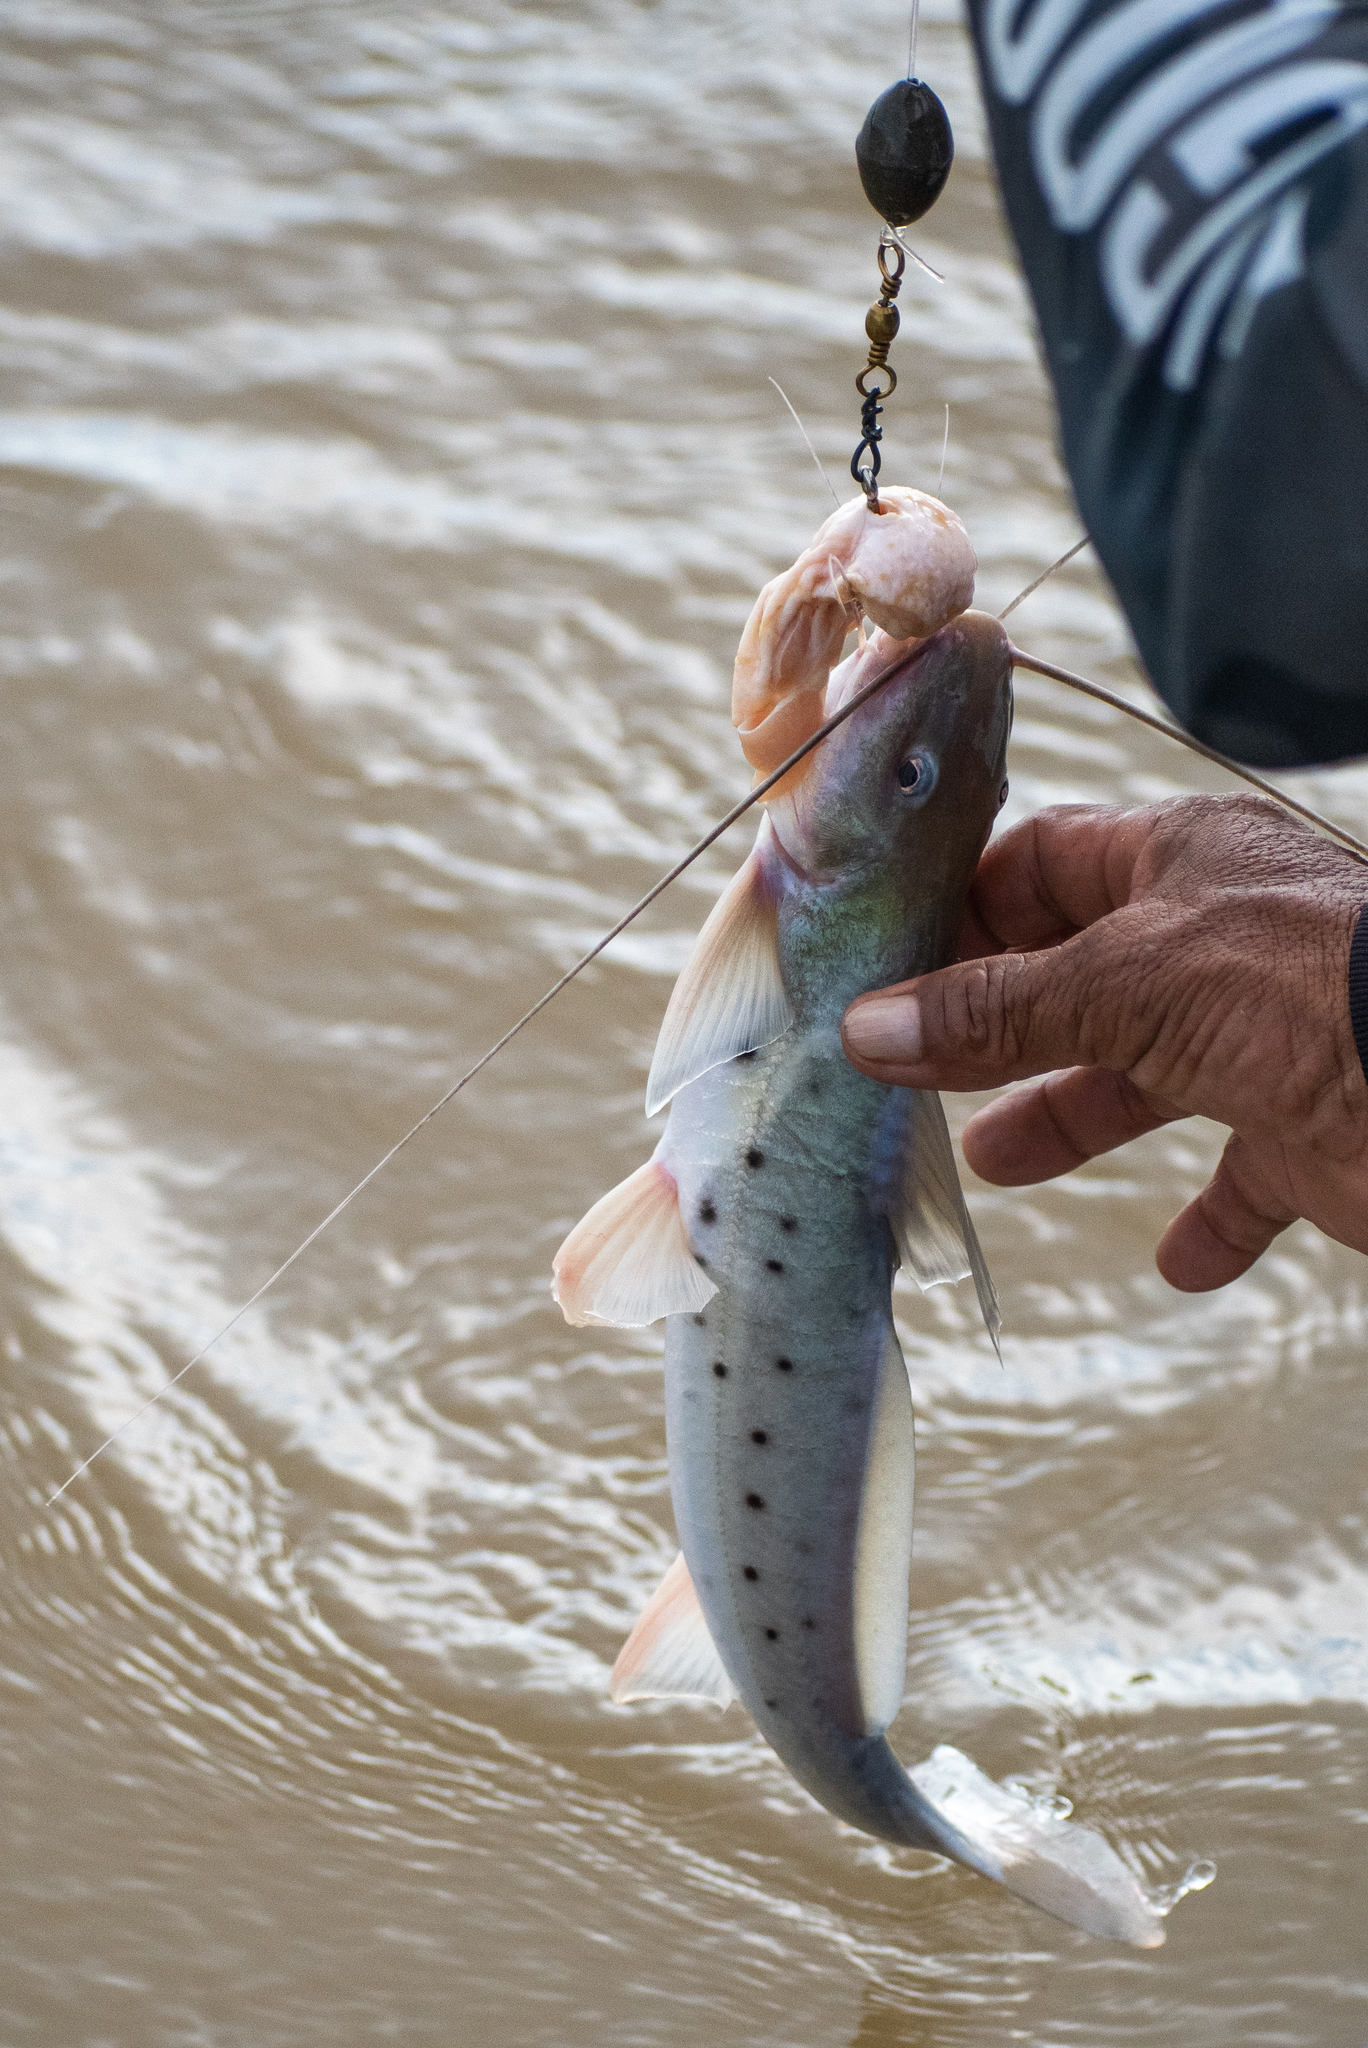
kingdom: Animalia
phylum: Chordata
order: Siluriformes
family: Pimelodidae
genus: Calophysus
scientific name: Calophysus macropterus
